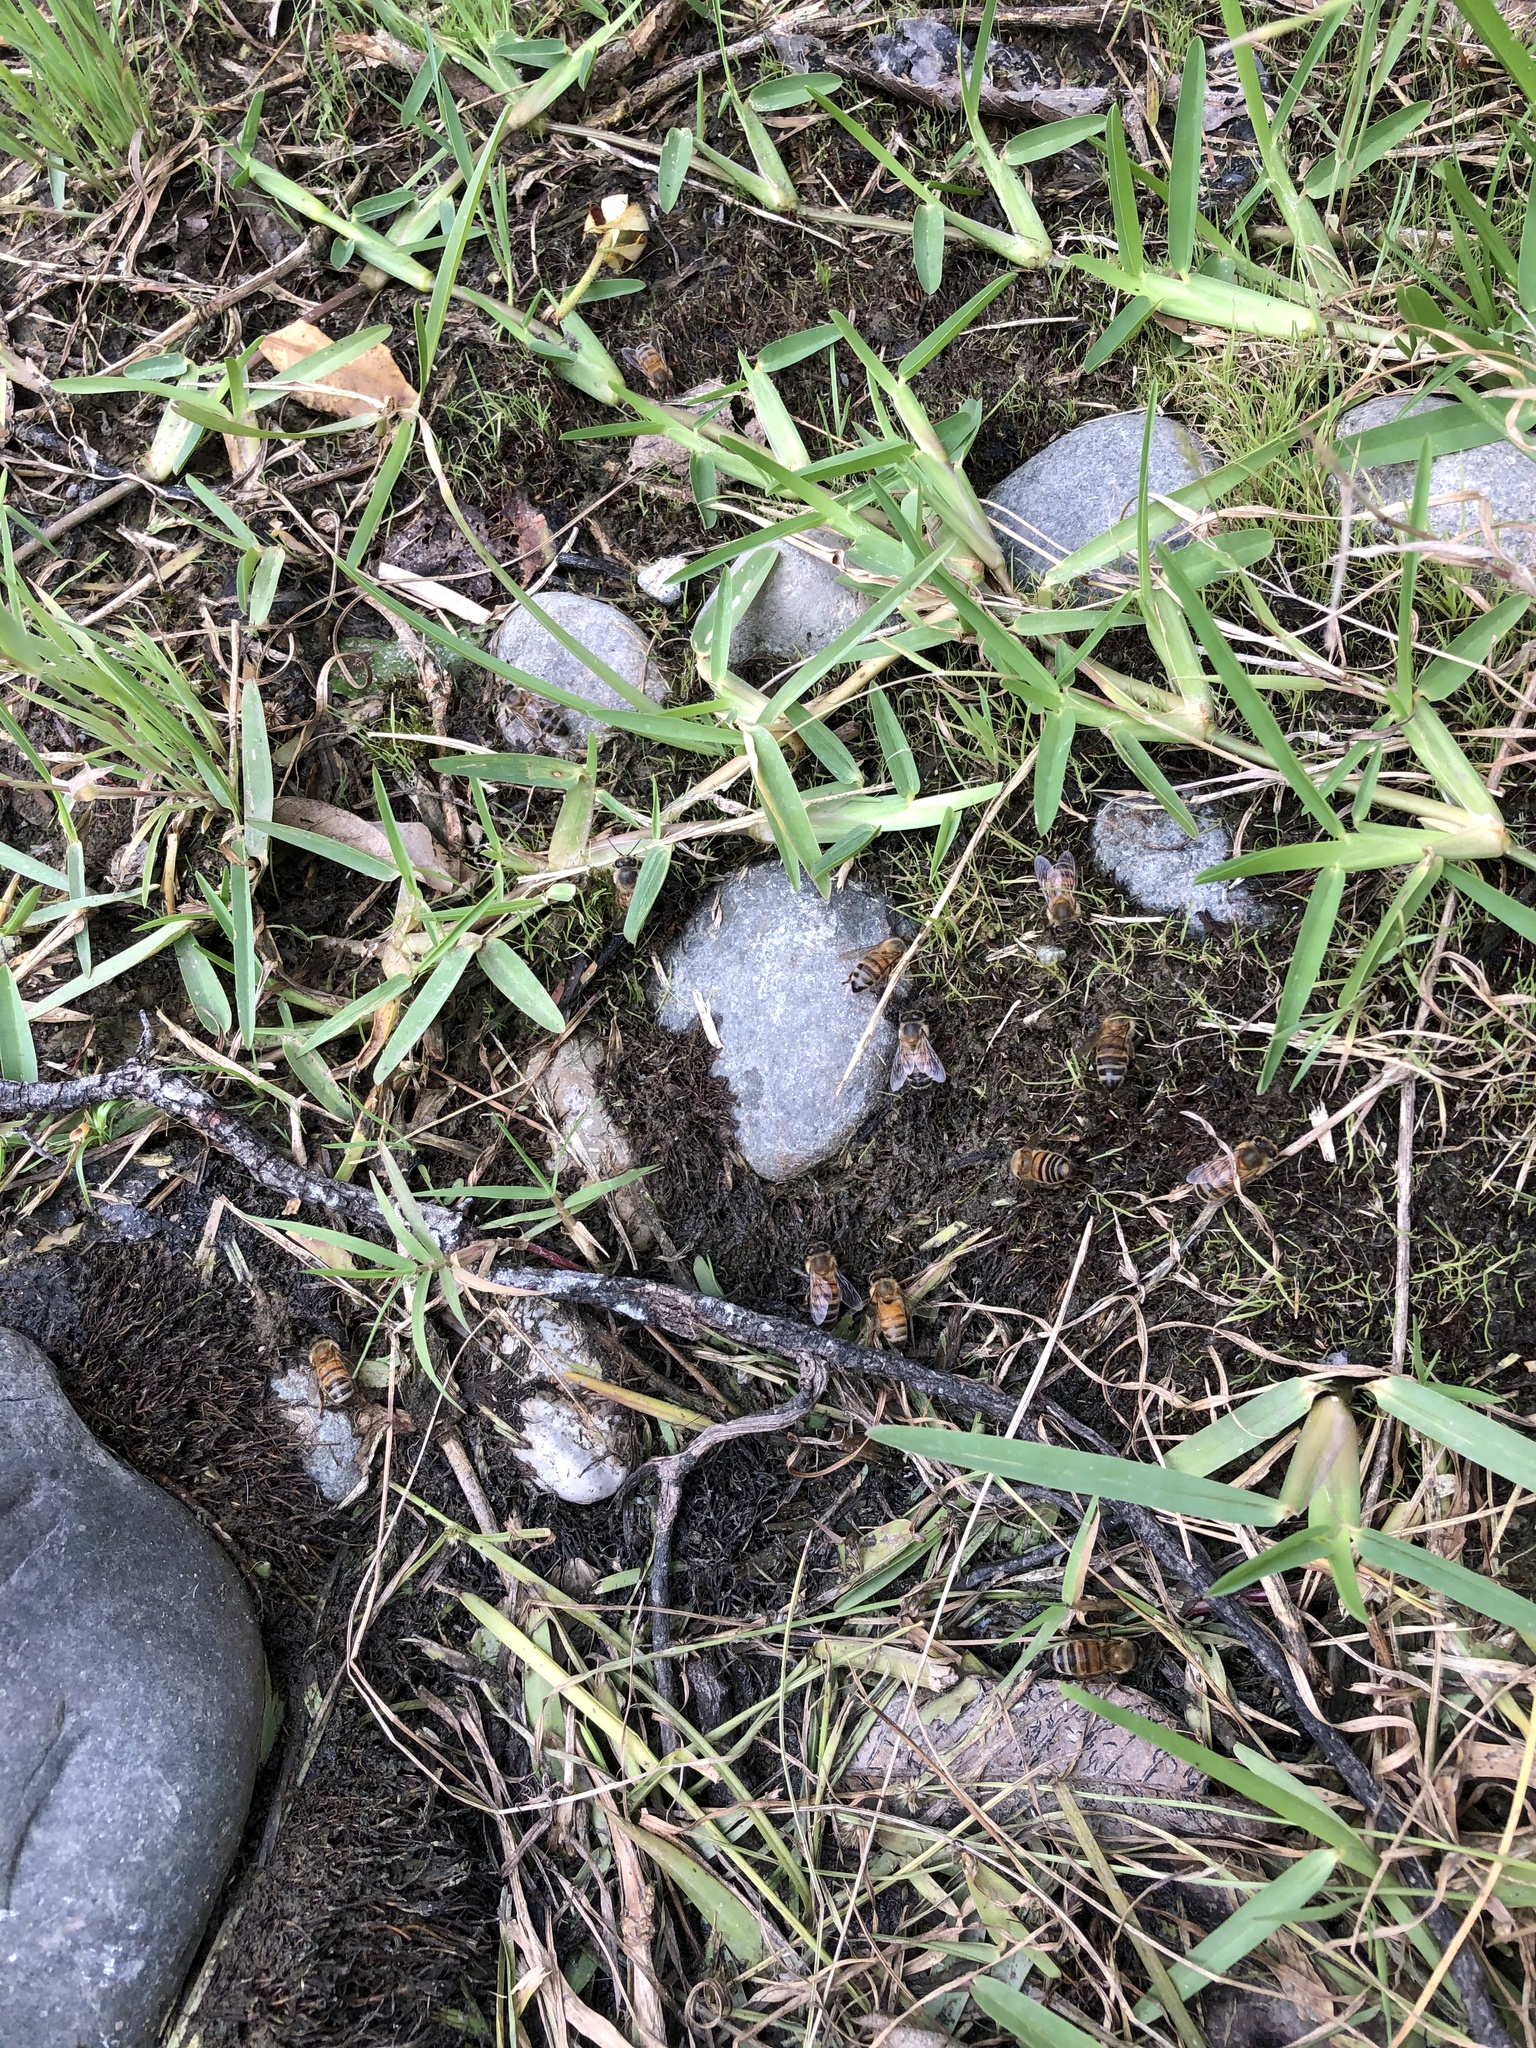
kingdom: Animalia
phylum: Arthropoda
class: Insecta
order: Hymenoptera
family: Apidae
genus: Apis
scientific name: Apis mellifera
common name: Honey bee
